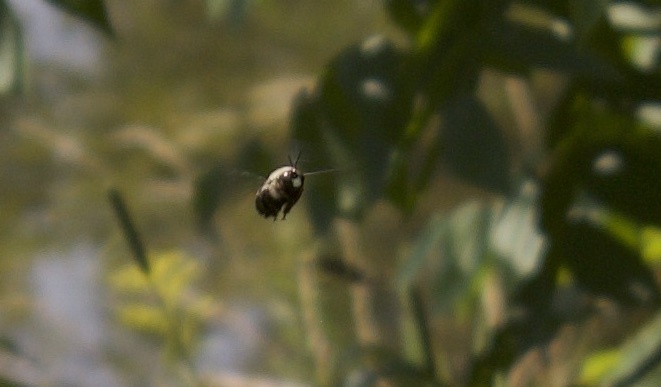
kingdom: Animalia
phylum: Arthropoda
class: Insecta
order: Hymenoptera
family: Apidae
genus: Xylocopa
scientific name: Xylocopa virginica
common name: Carpenter bee
